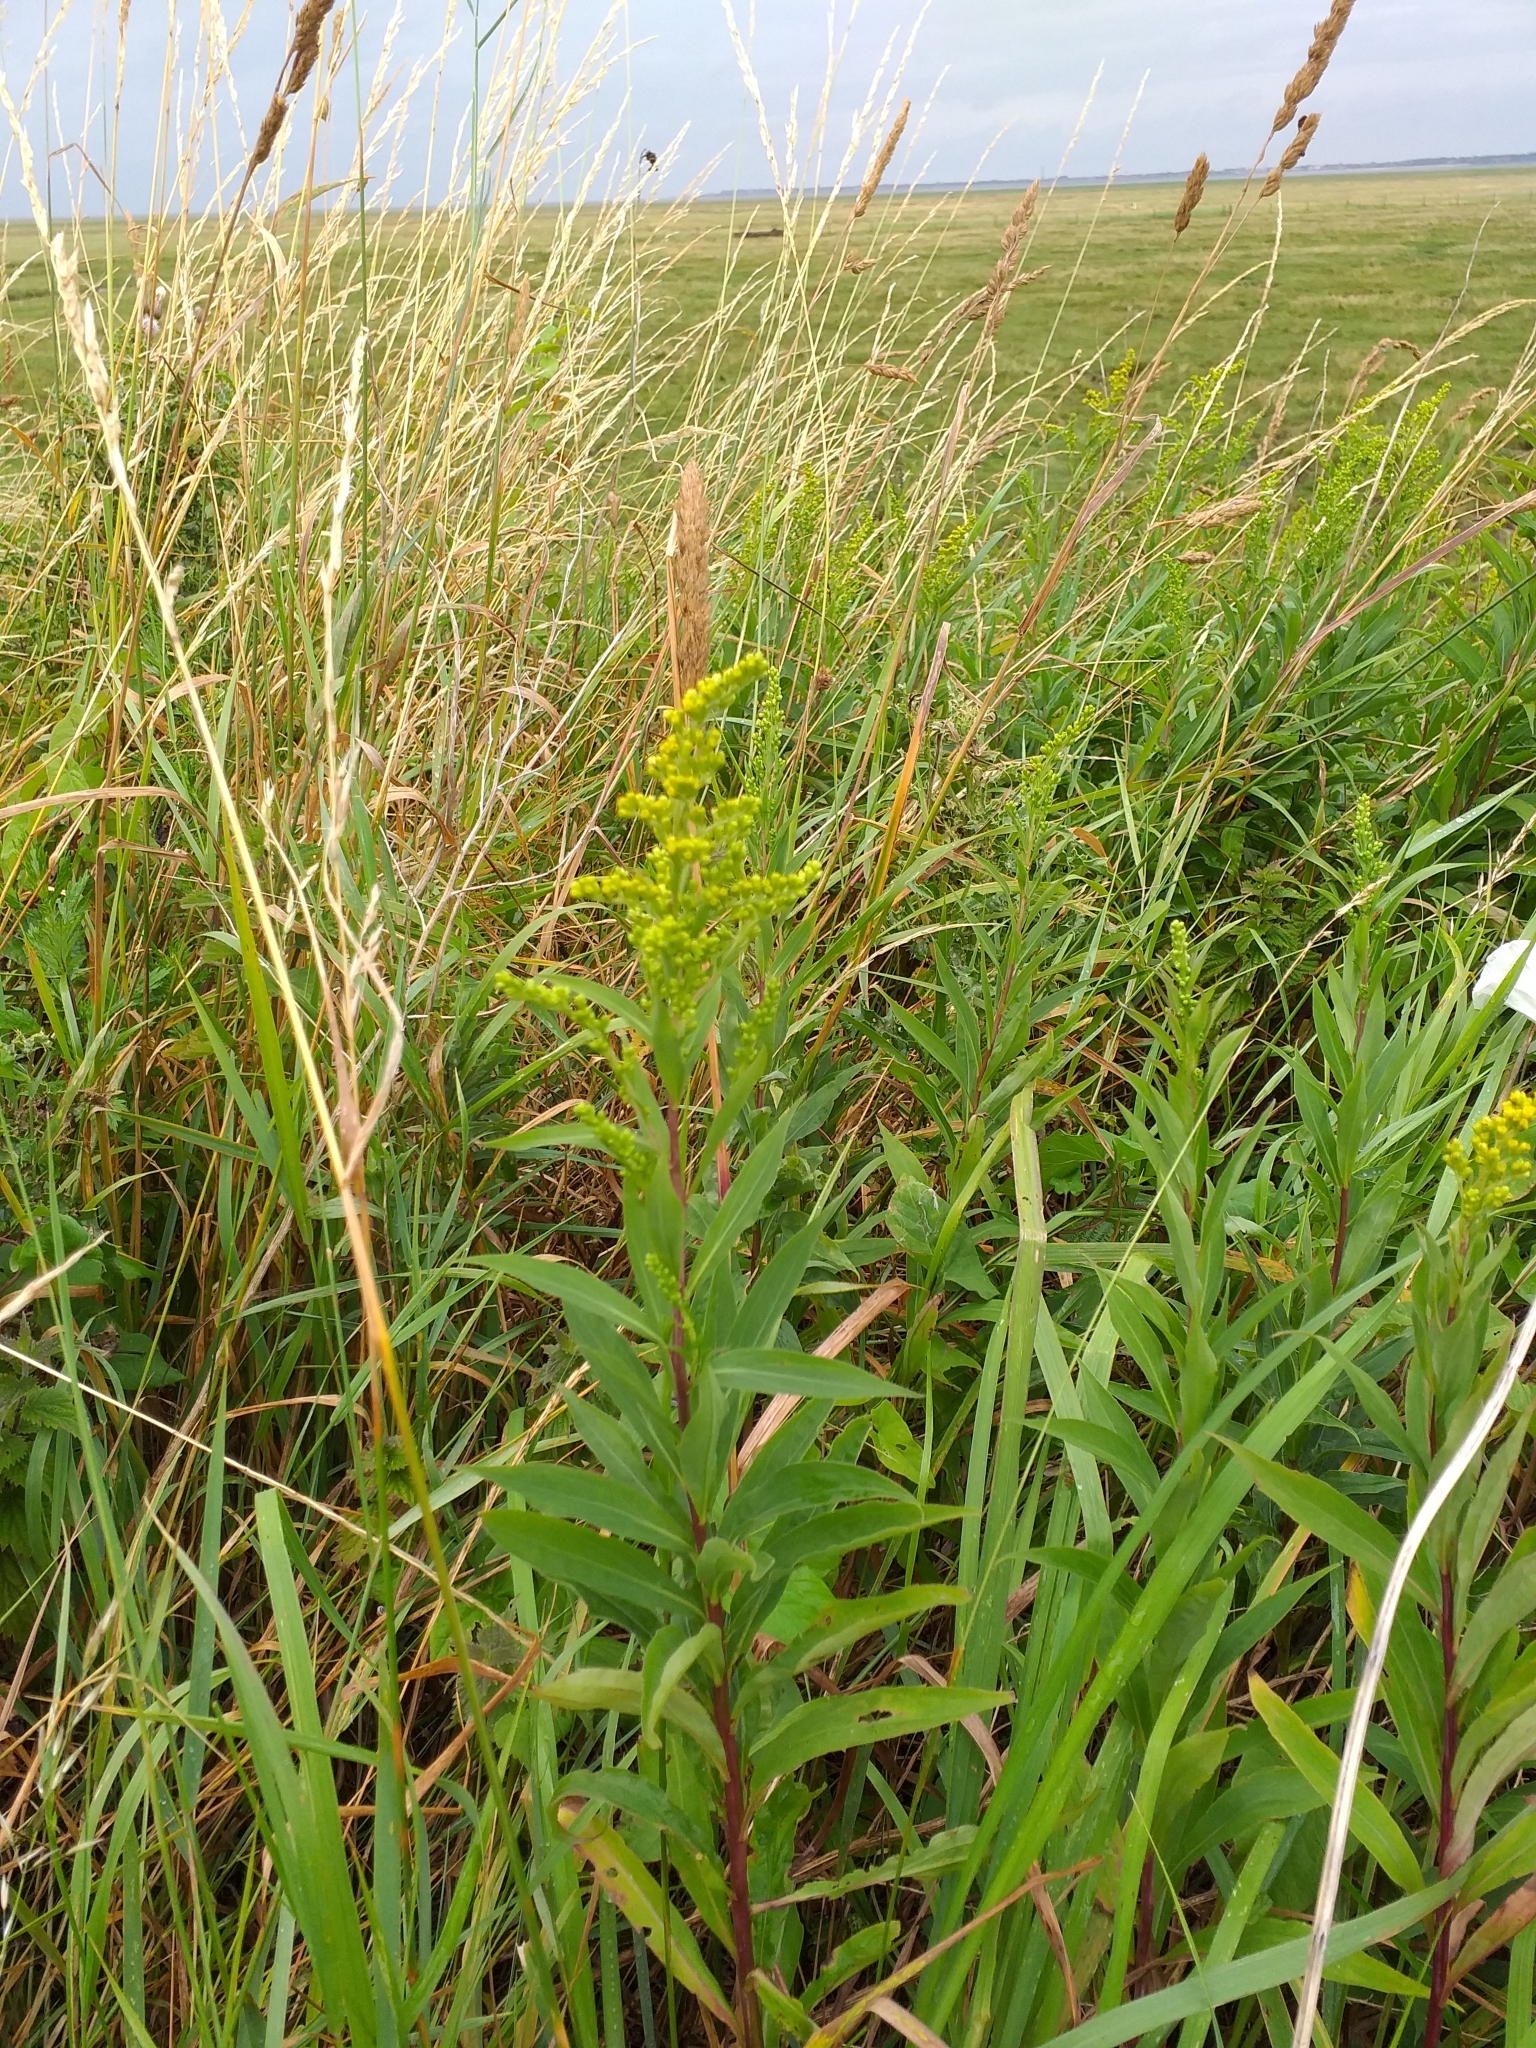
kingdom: Plantae
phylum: Tracheophyta
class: Magnoliopsida
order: Asterales
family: Asteraceae
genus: Solidago
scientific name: Solidago gigantea
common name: Giant goldenrod
